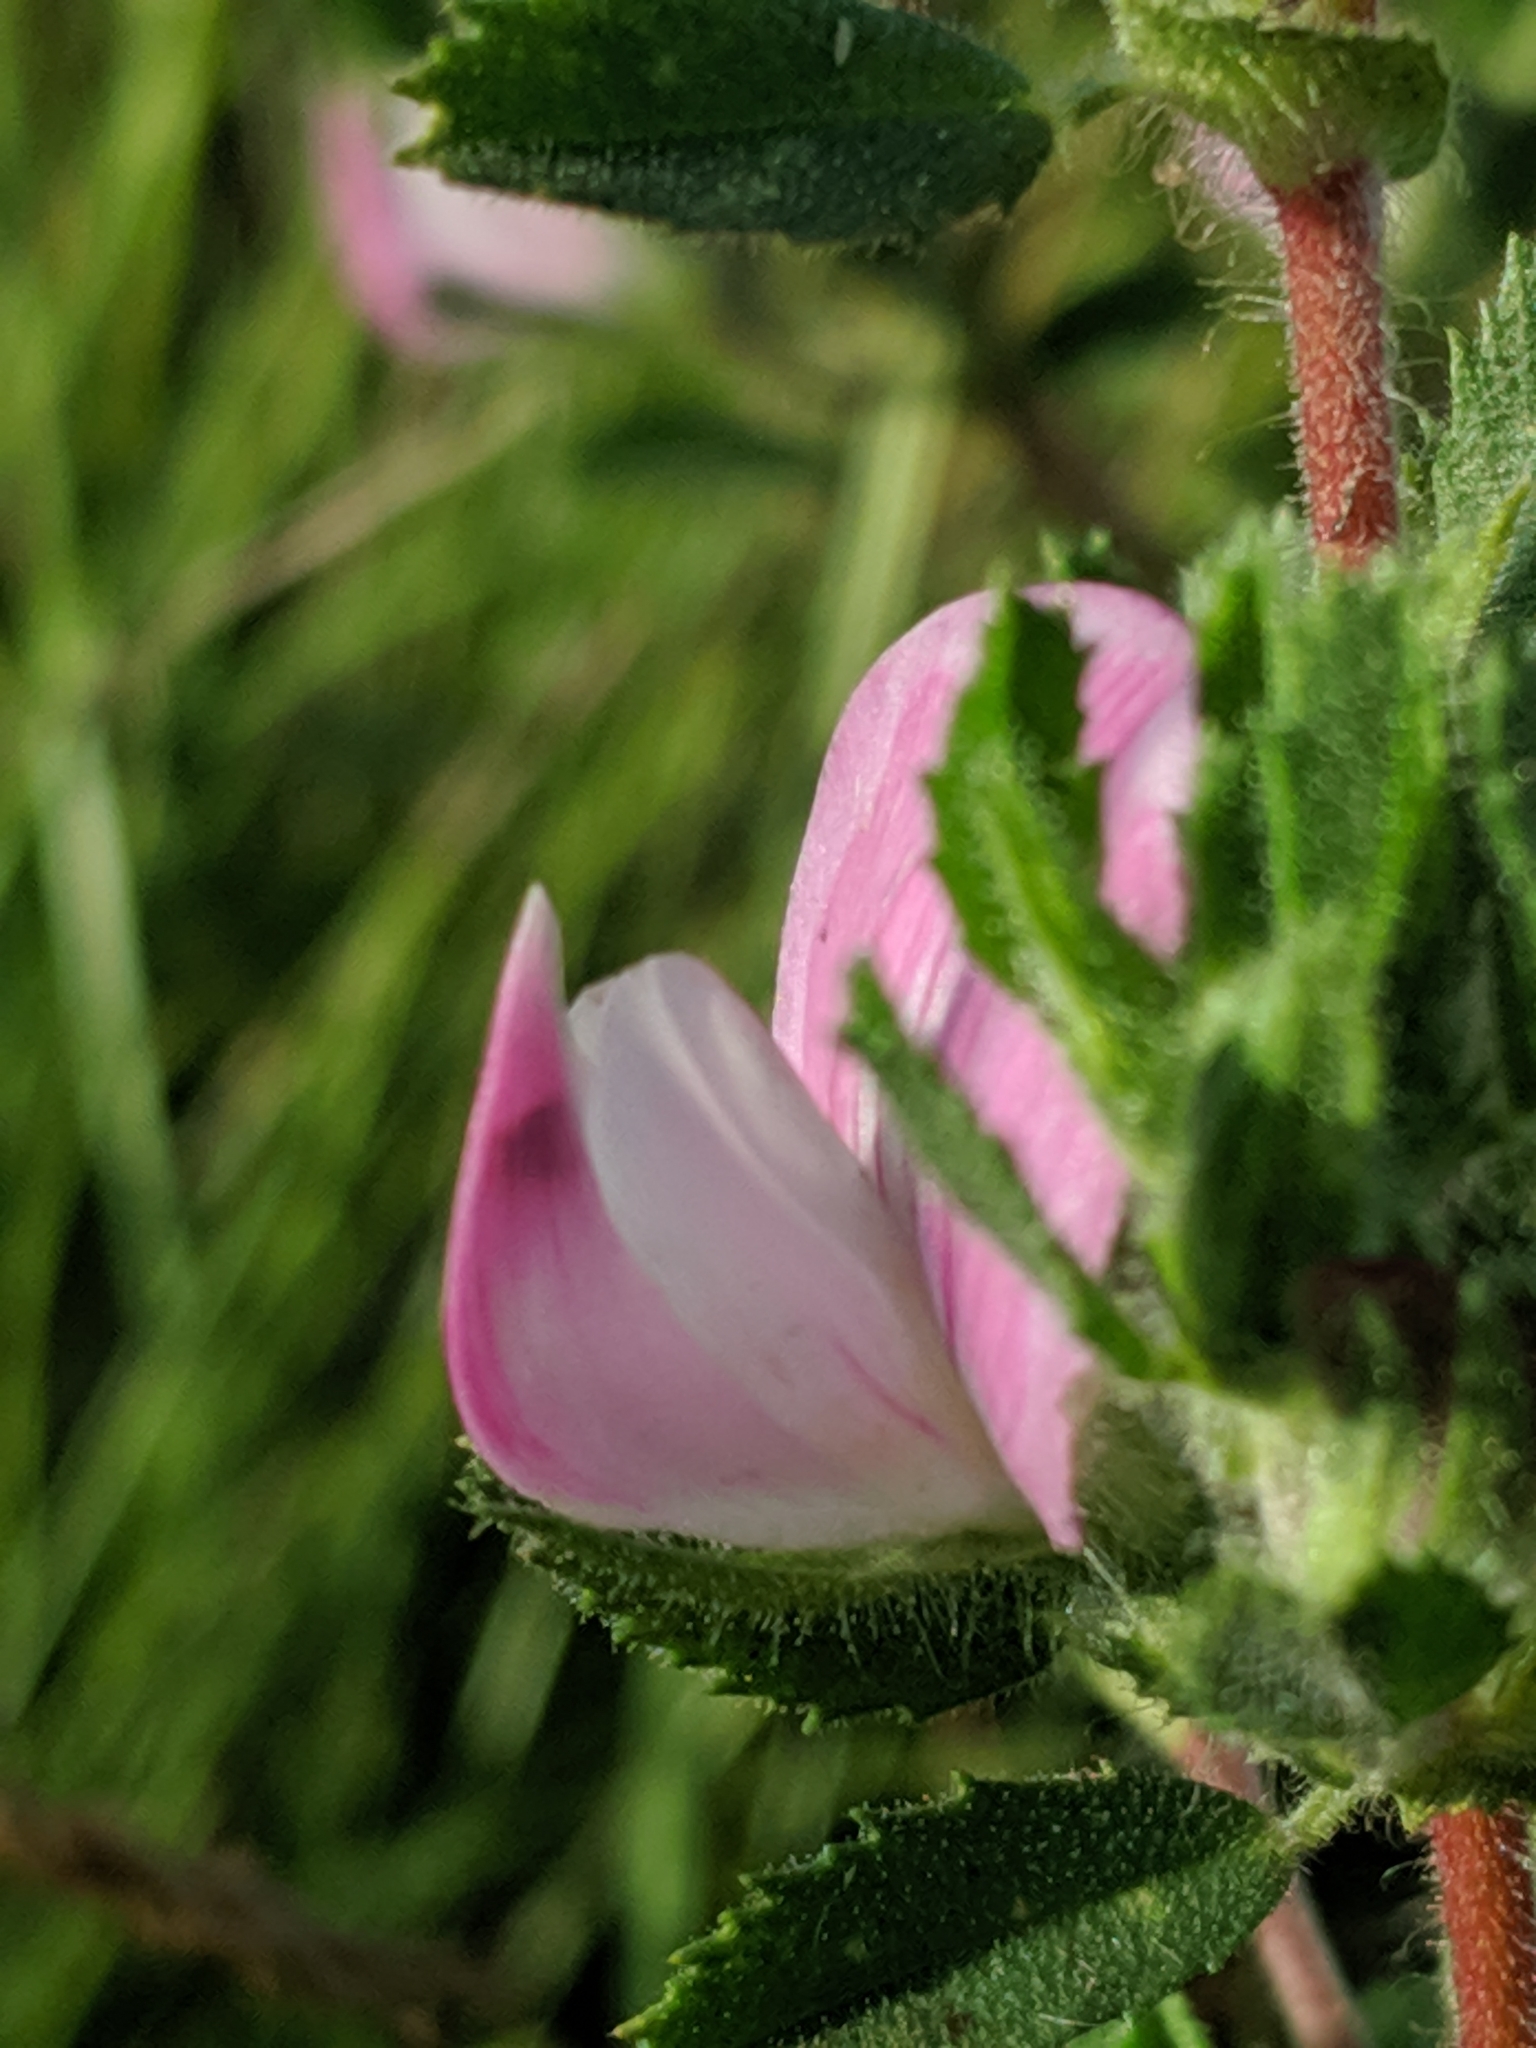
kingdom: Plantae
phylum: Tracheophyta
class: Magnoliopsida
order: Fabales
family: Fabaceae
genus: Ononis
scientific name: Ononis spinosa
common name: Spiny restharrow
